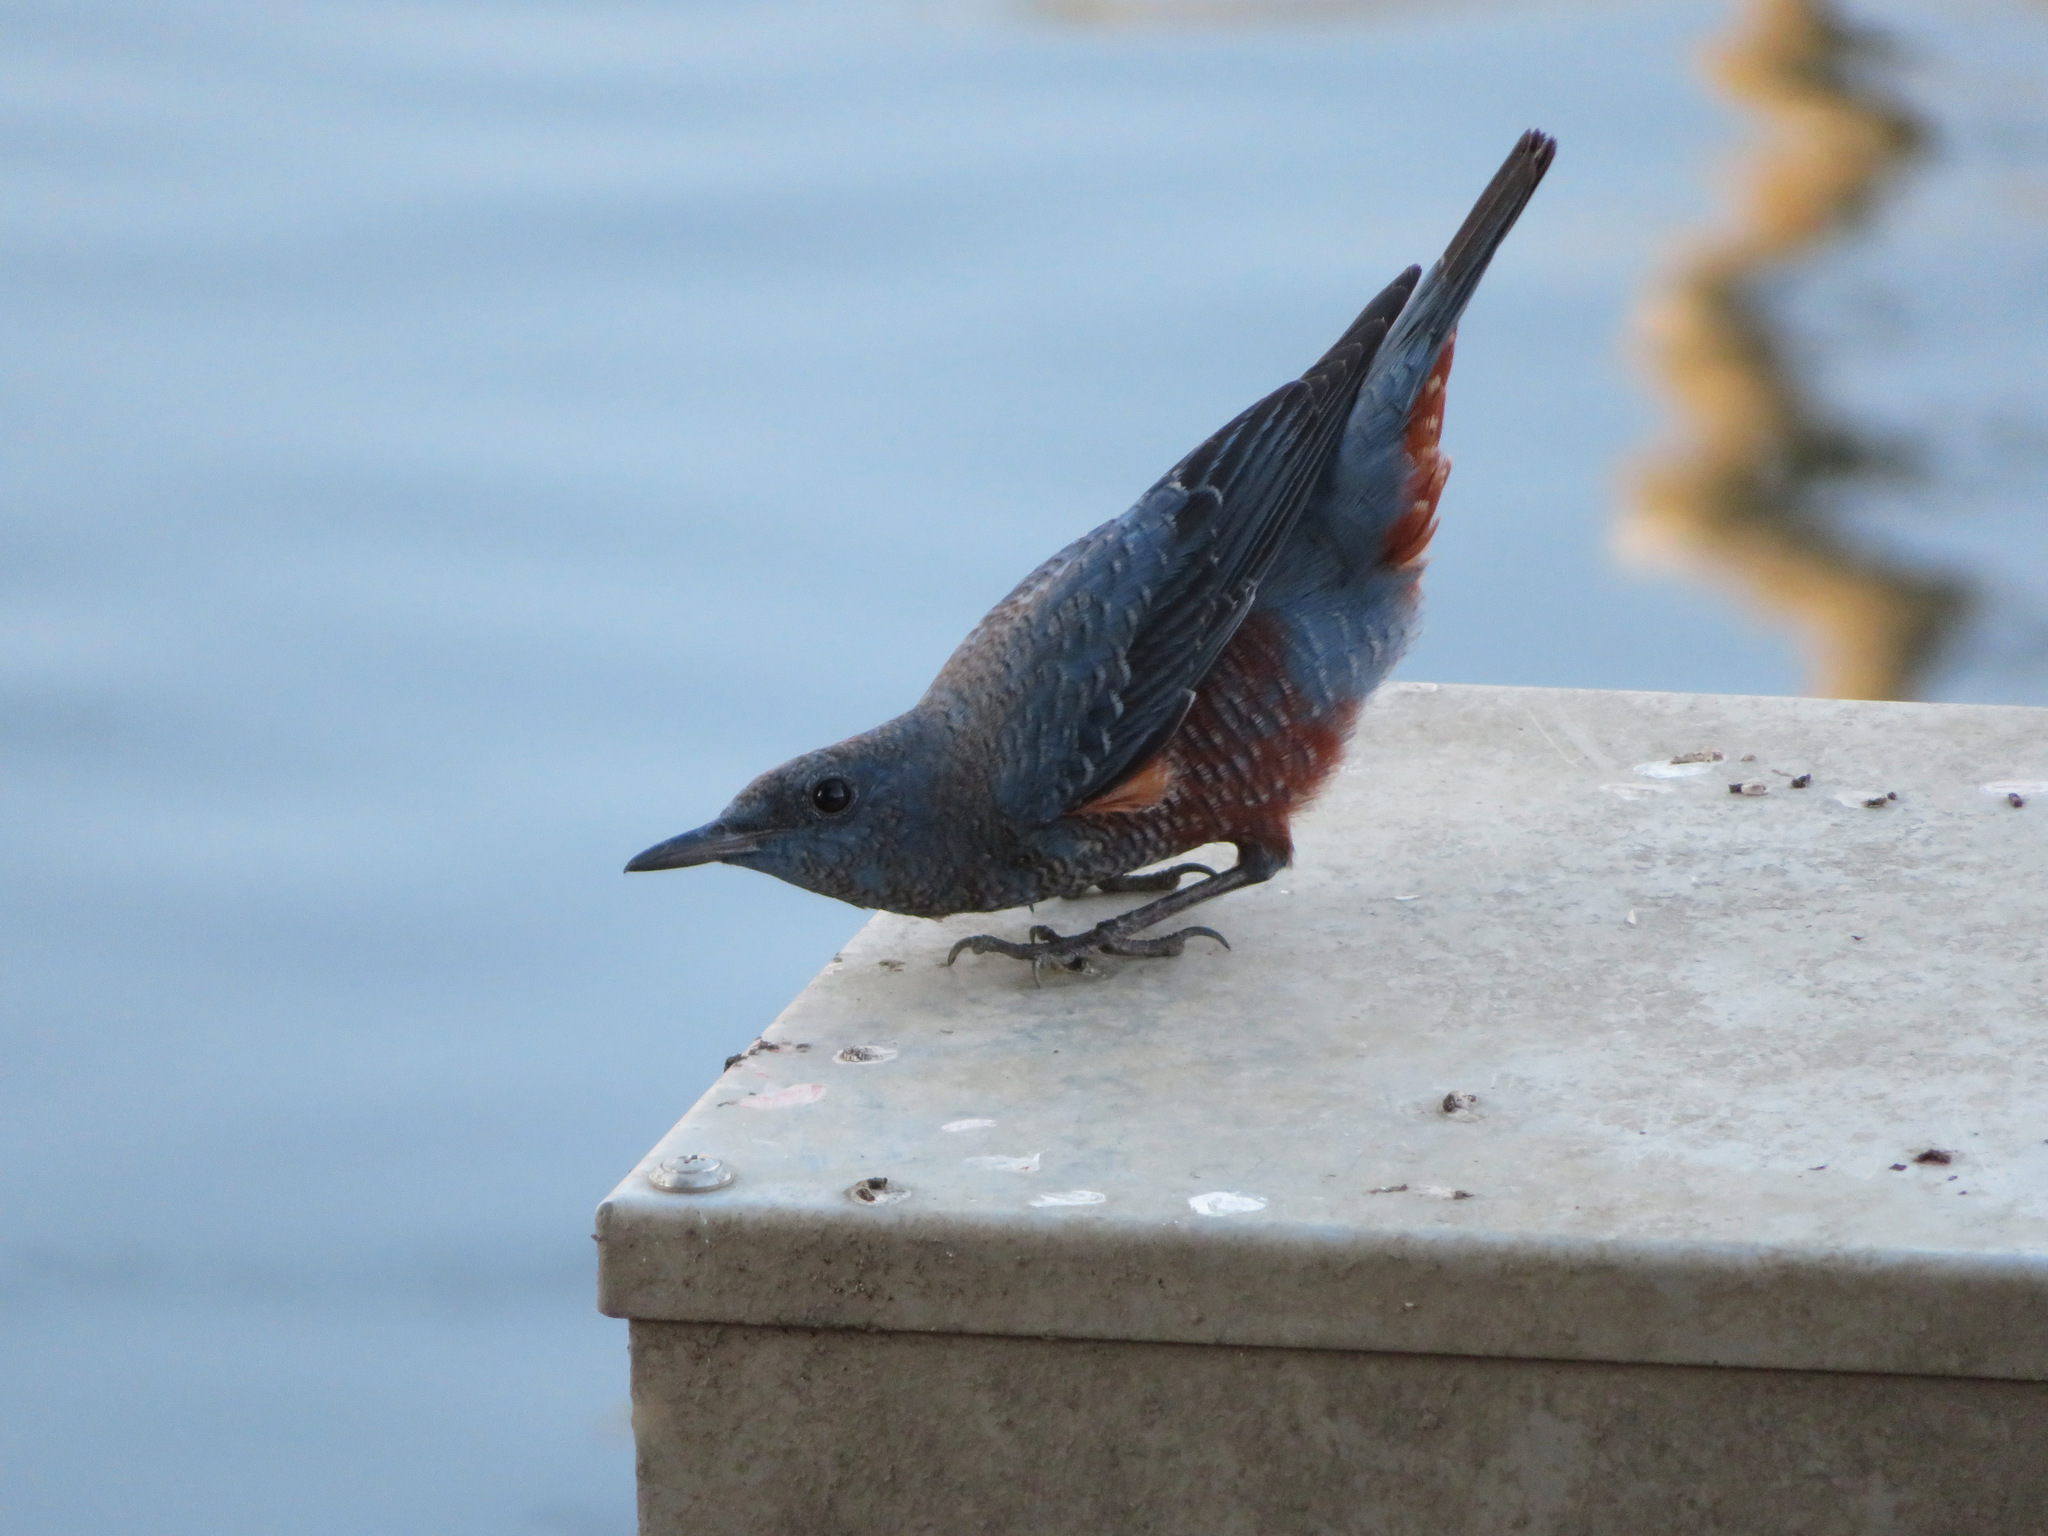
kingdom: Animalia
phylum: Chordata
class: Aves
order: Passeriformes
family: Muscicapidae
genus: Monticola
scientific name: Monticola solitarius
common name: Blue rock thrush
